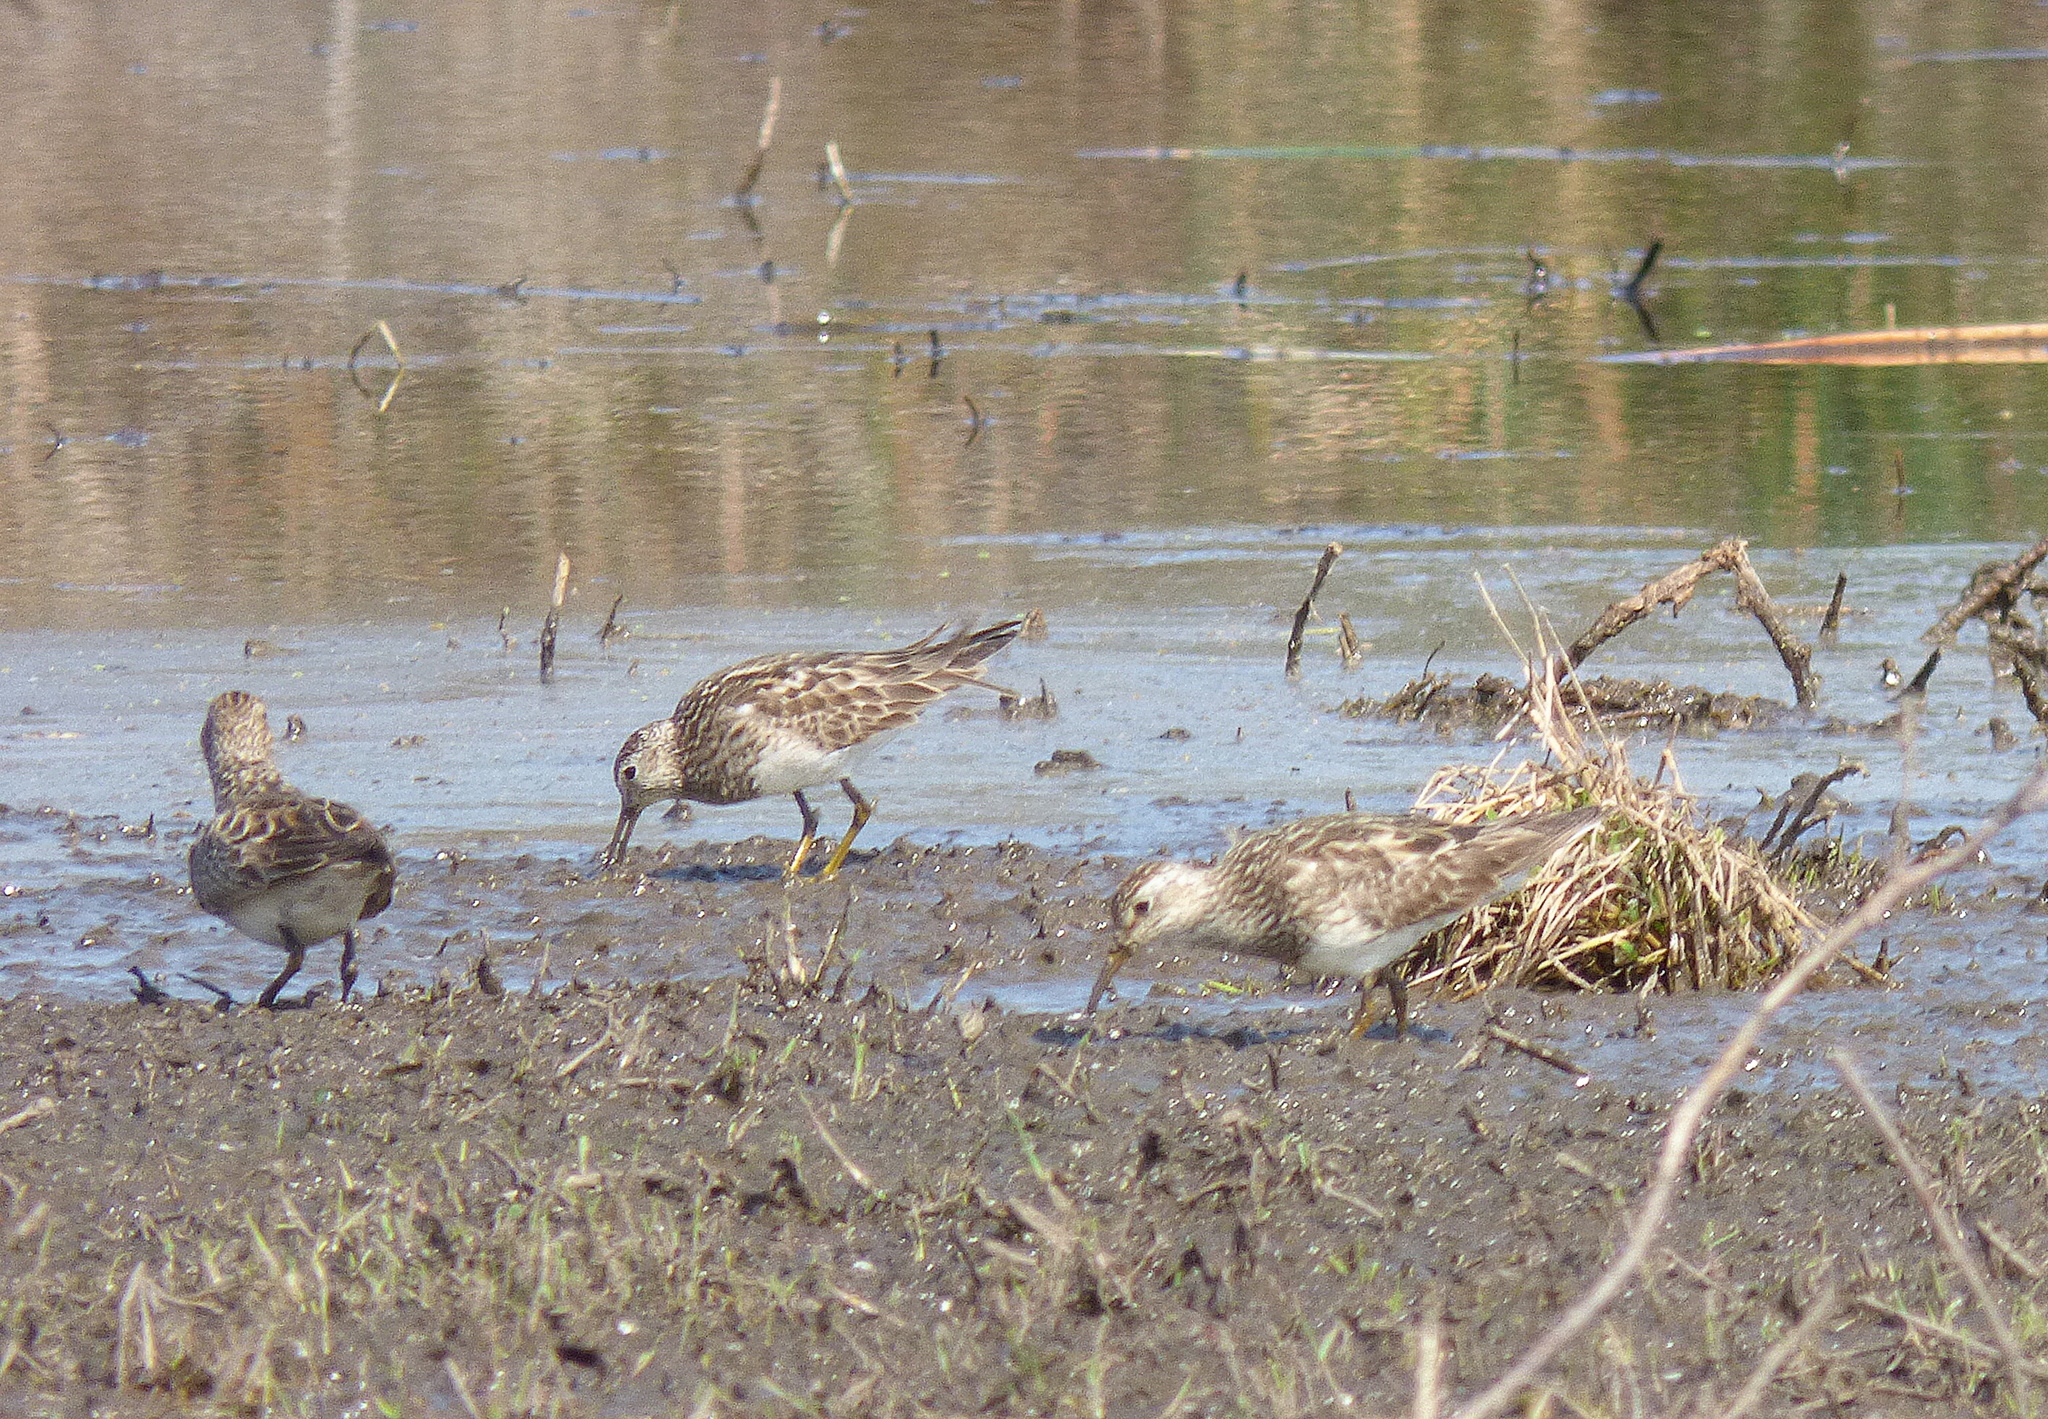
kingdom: Animalia
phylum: Chordata
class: Aves
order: Charadriiformes
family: Scolopacidae
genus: Calidris
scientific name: Calidris melanotos
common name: Pectoral sandpiper
